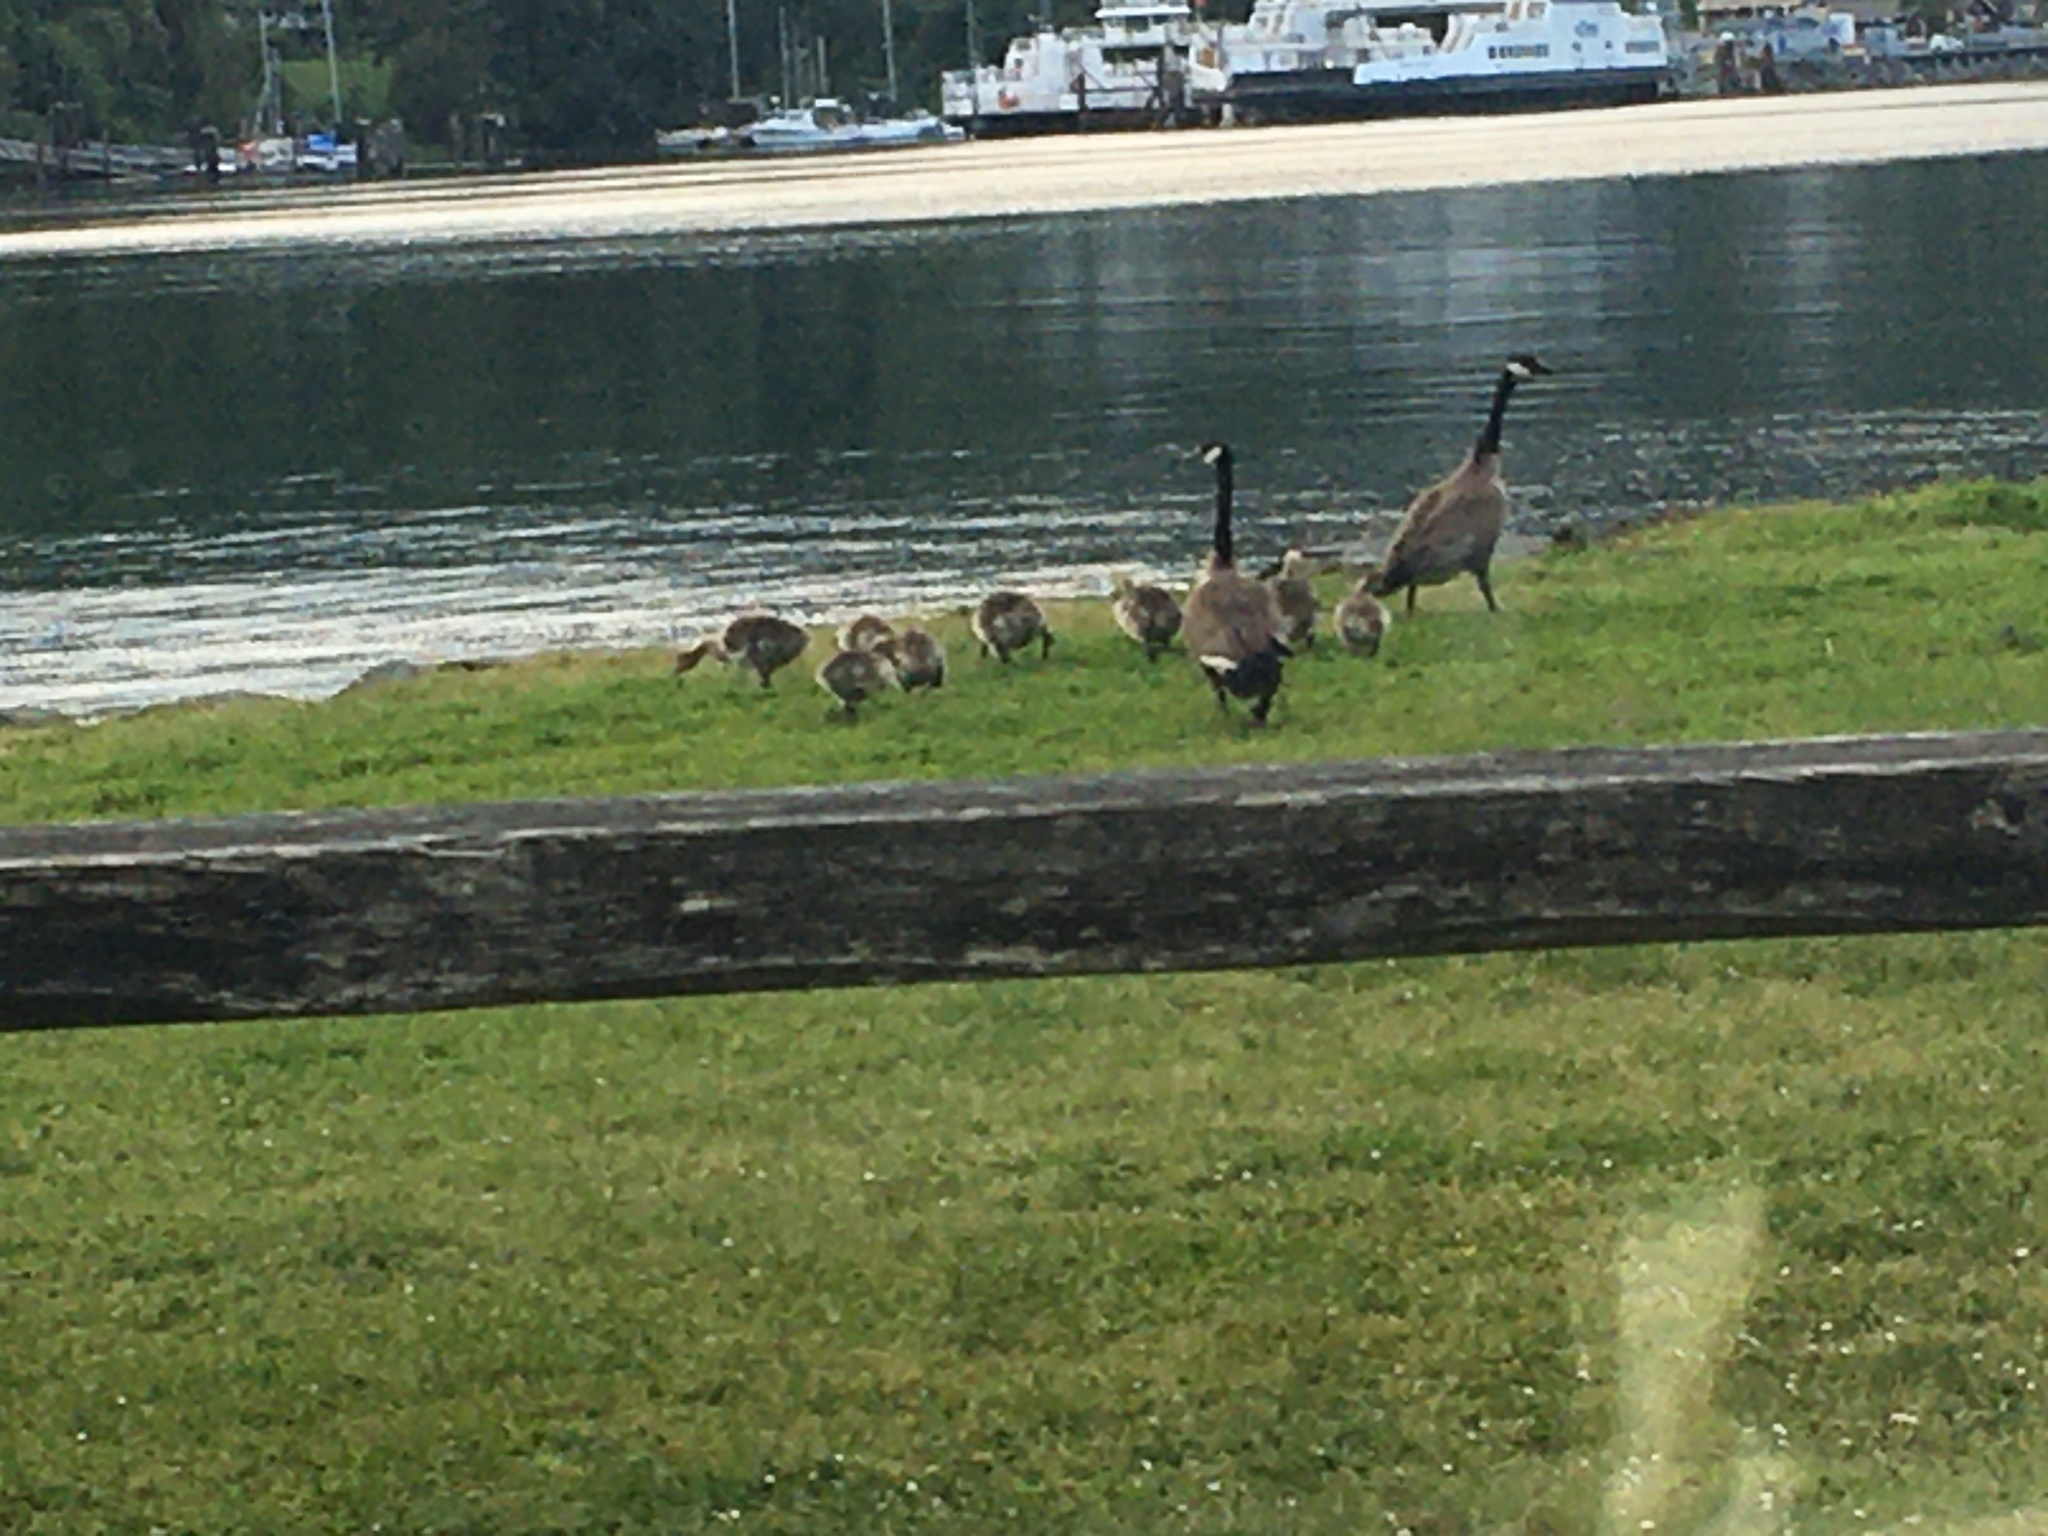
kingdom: Animalia
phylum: Chordata
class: Aves
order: Anseriformes
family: Anatidae
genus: Branta
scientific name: Branta canadensis
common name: Canada goose
